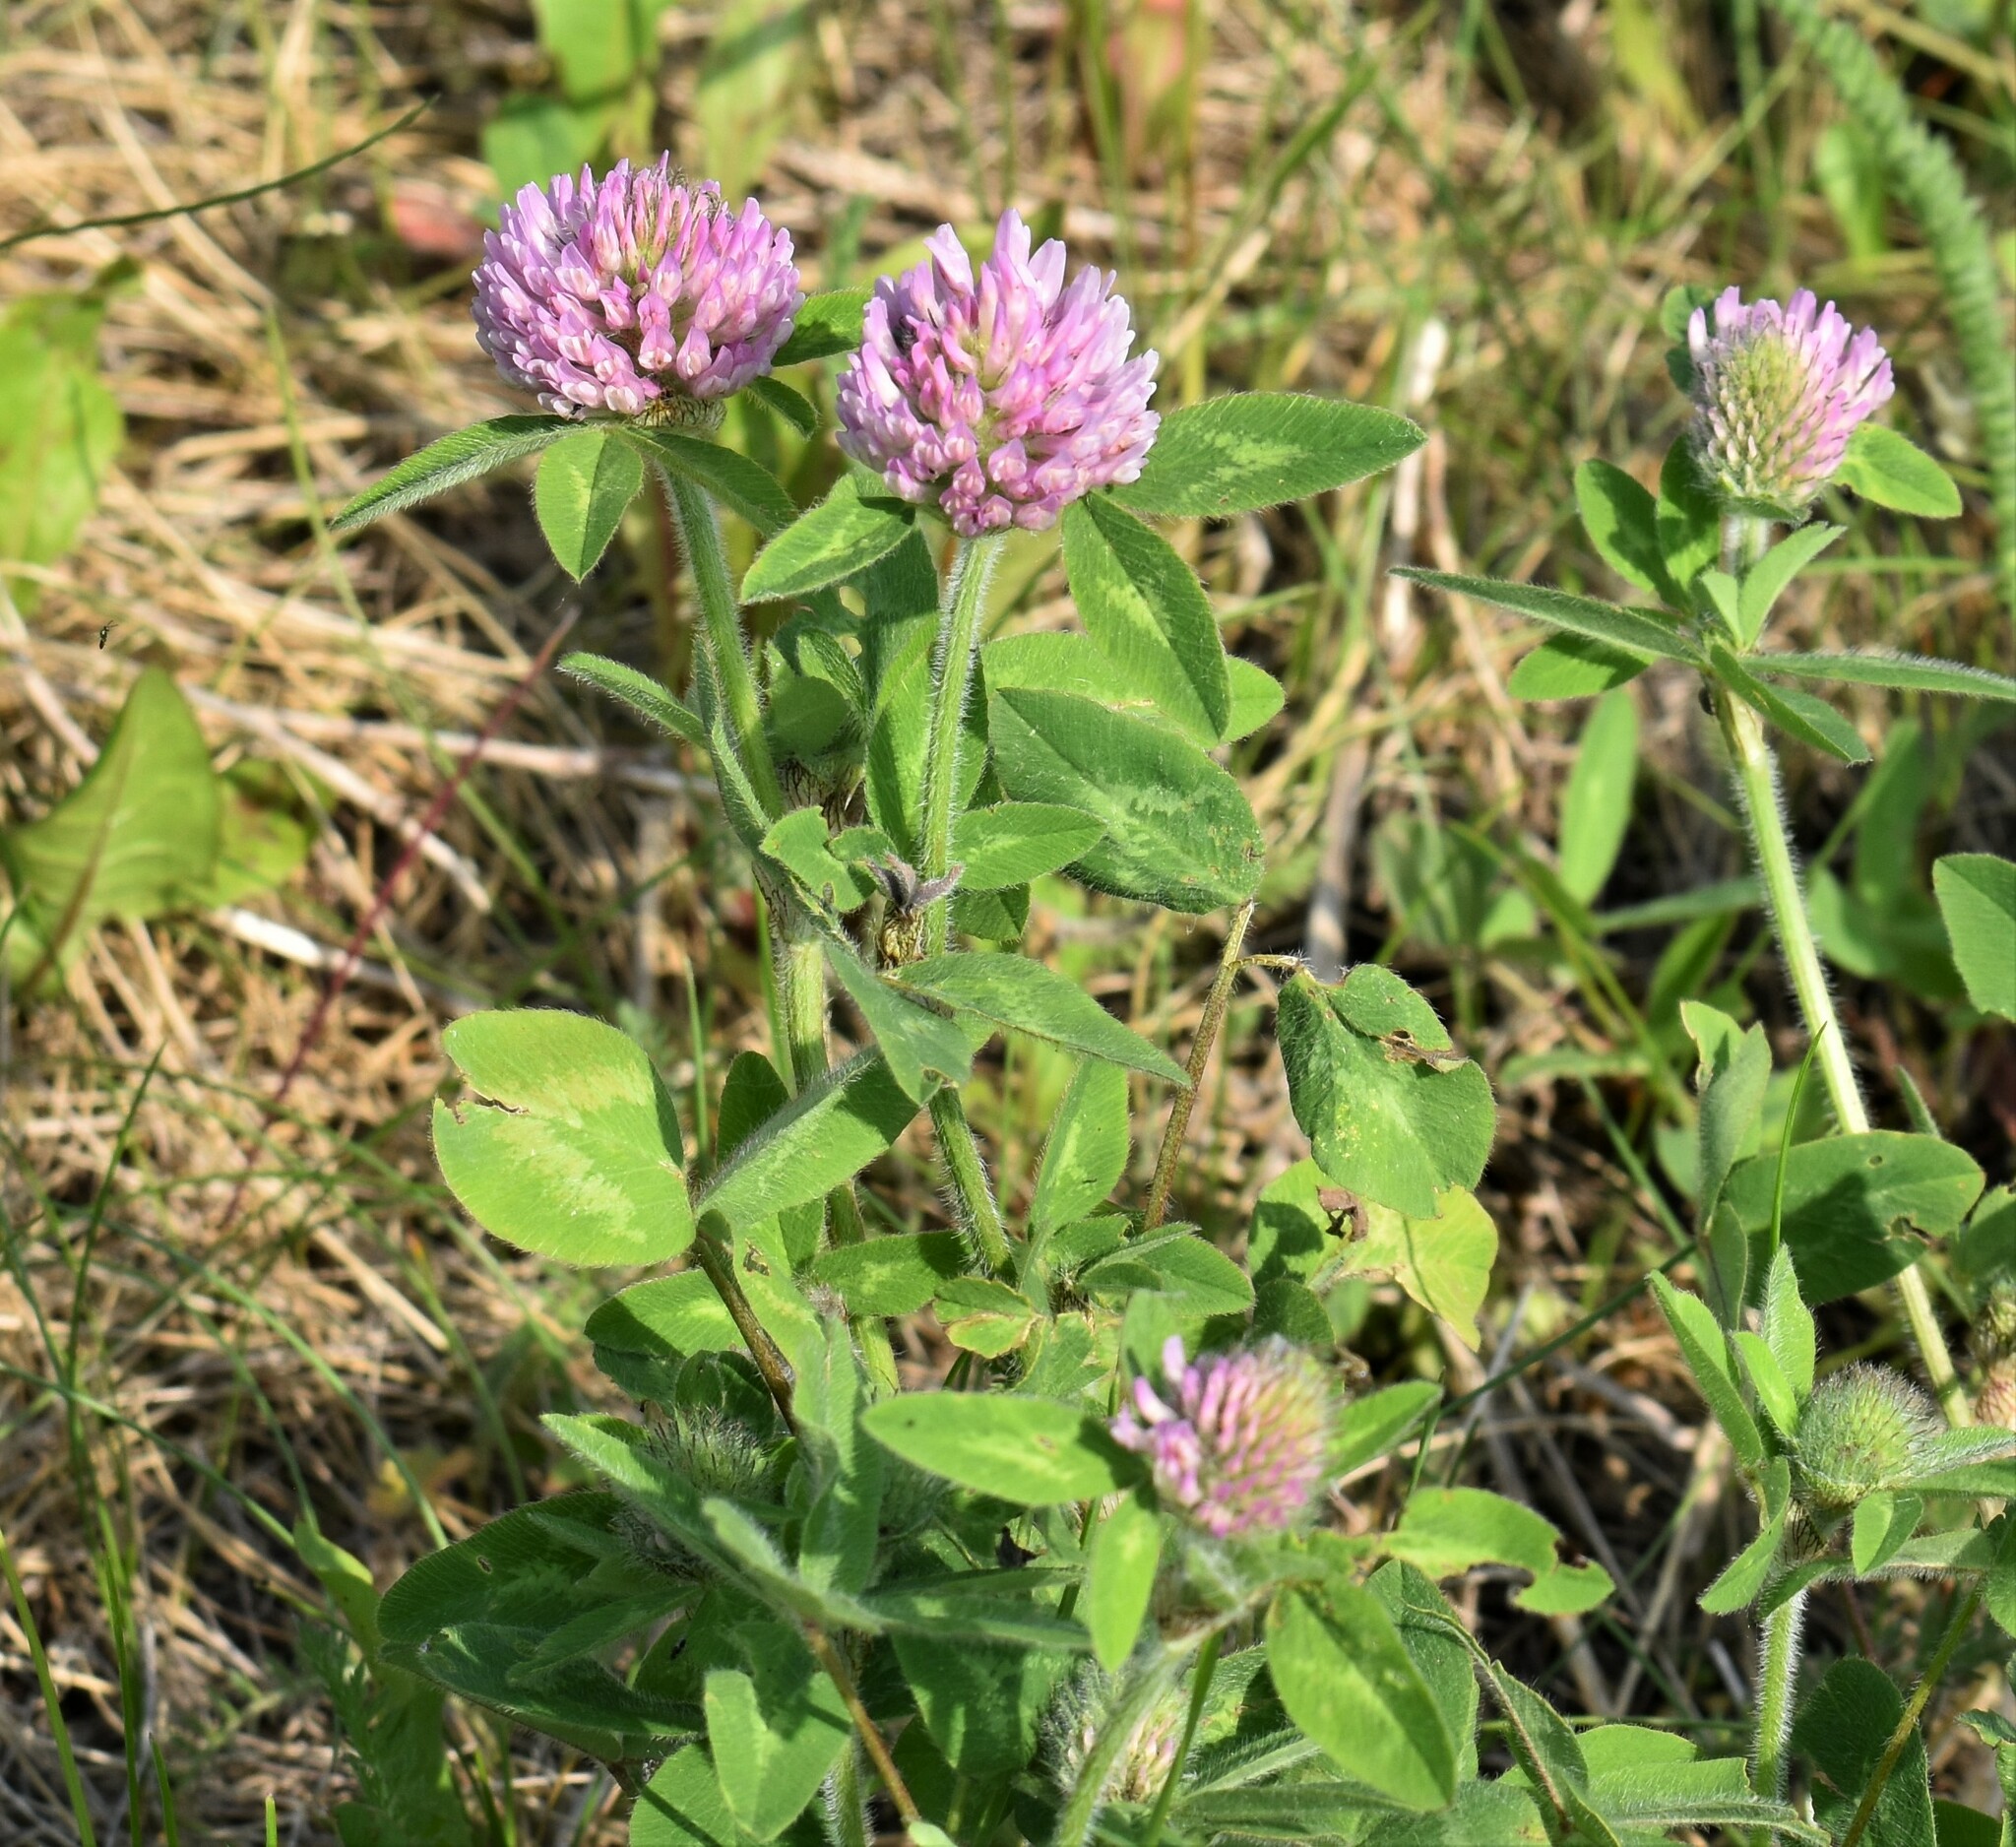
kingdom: Plantae
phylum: Tracheophyta
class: Magnoliopsida
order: Fabales
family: Fabaceae
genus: Trifolium
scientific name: Trifolium pratense
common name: Red clover
